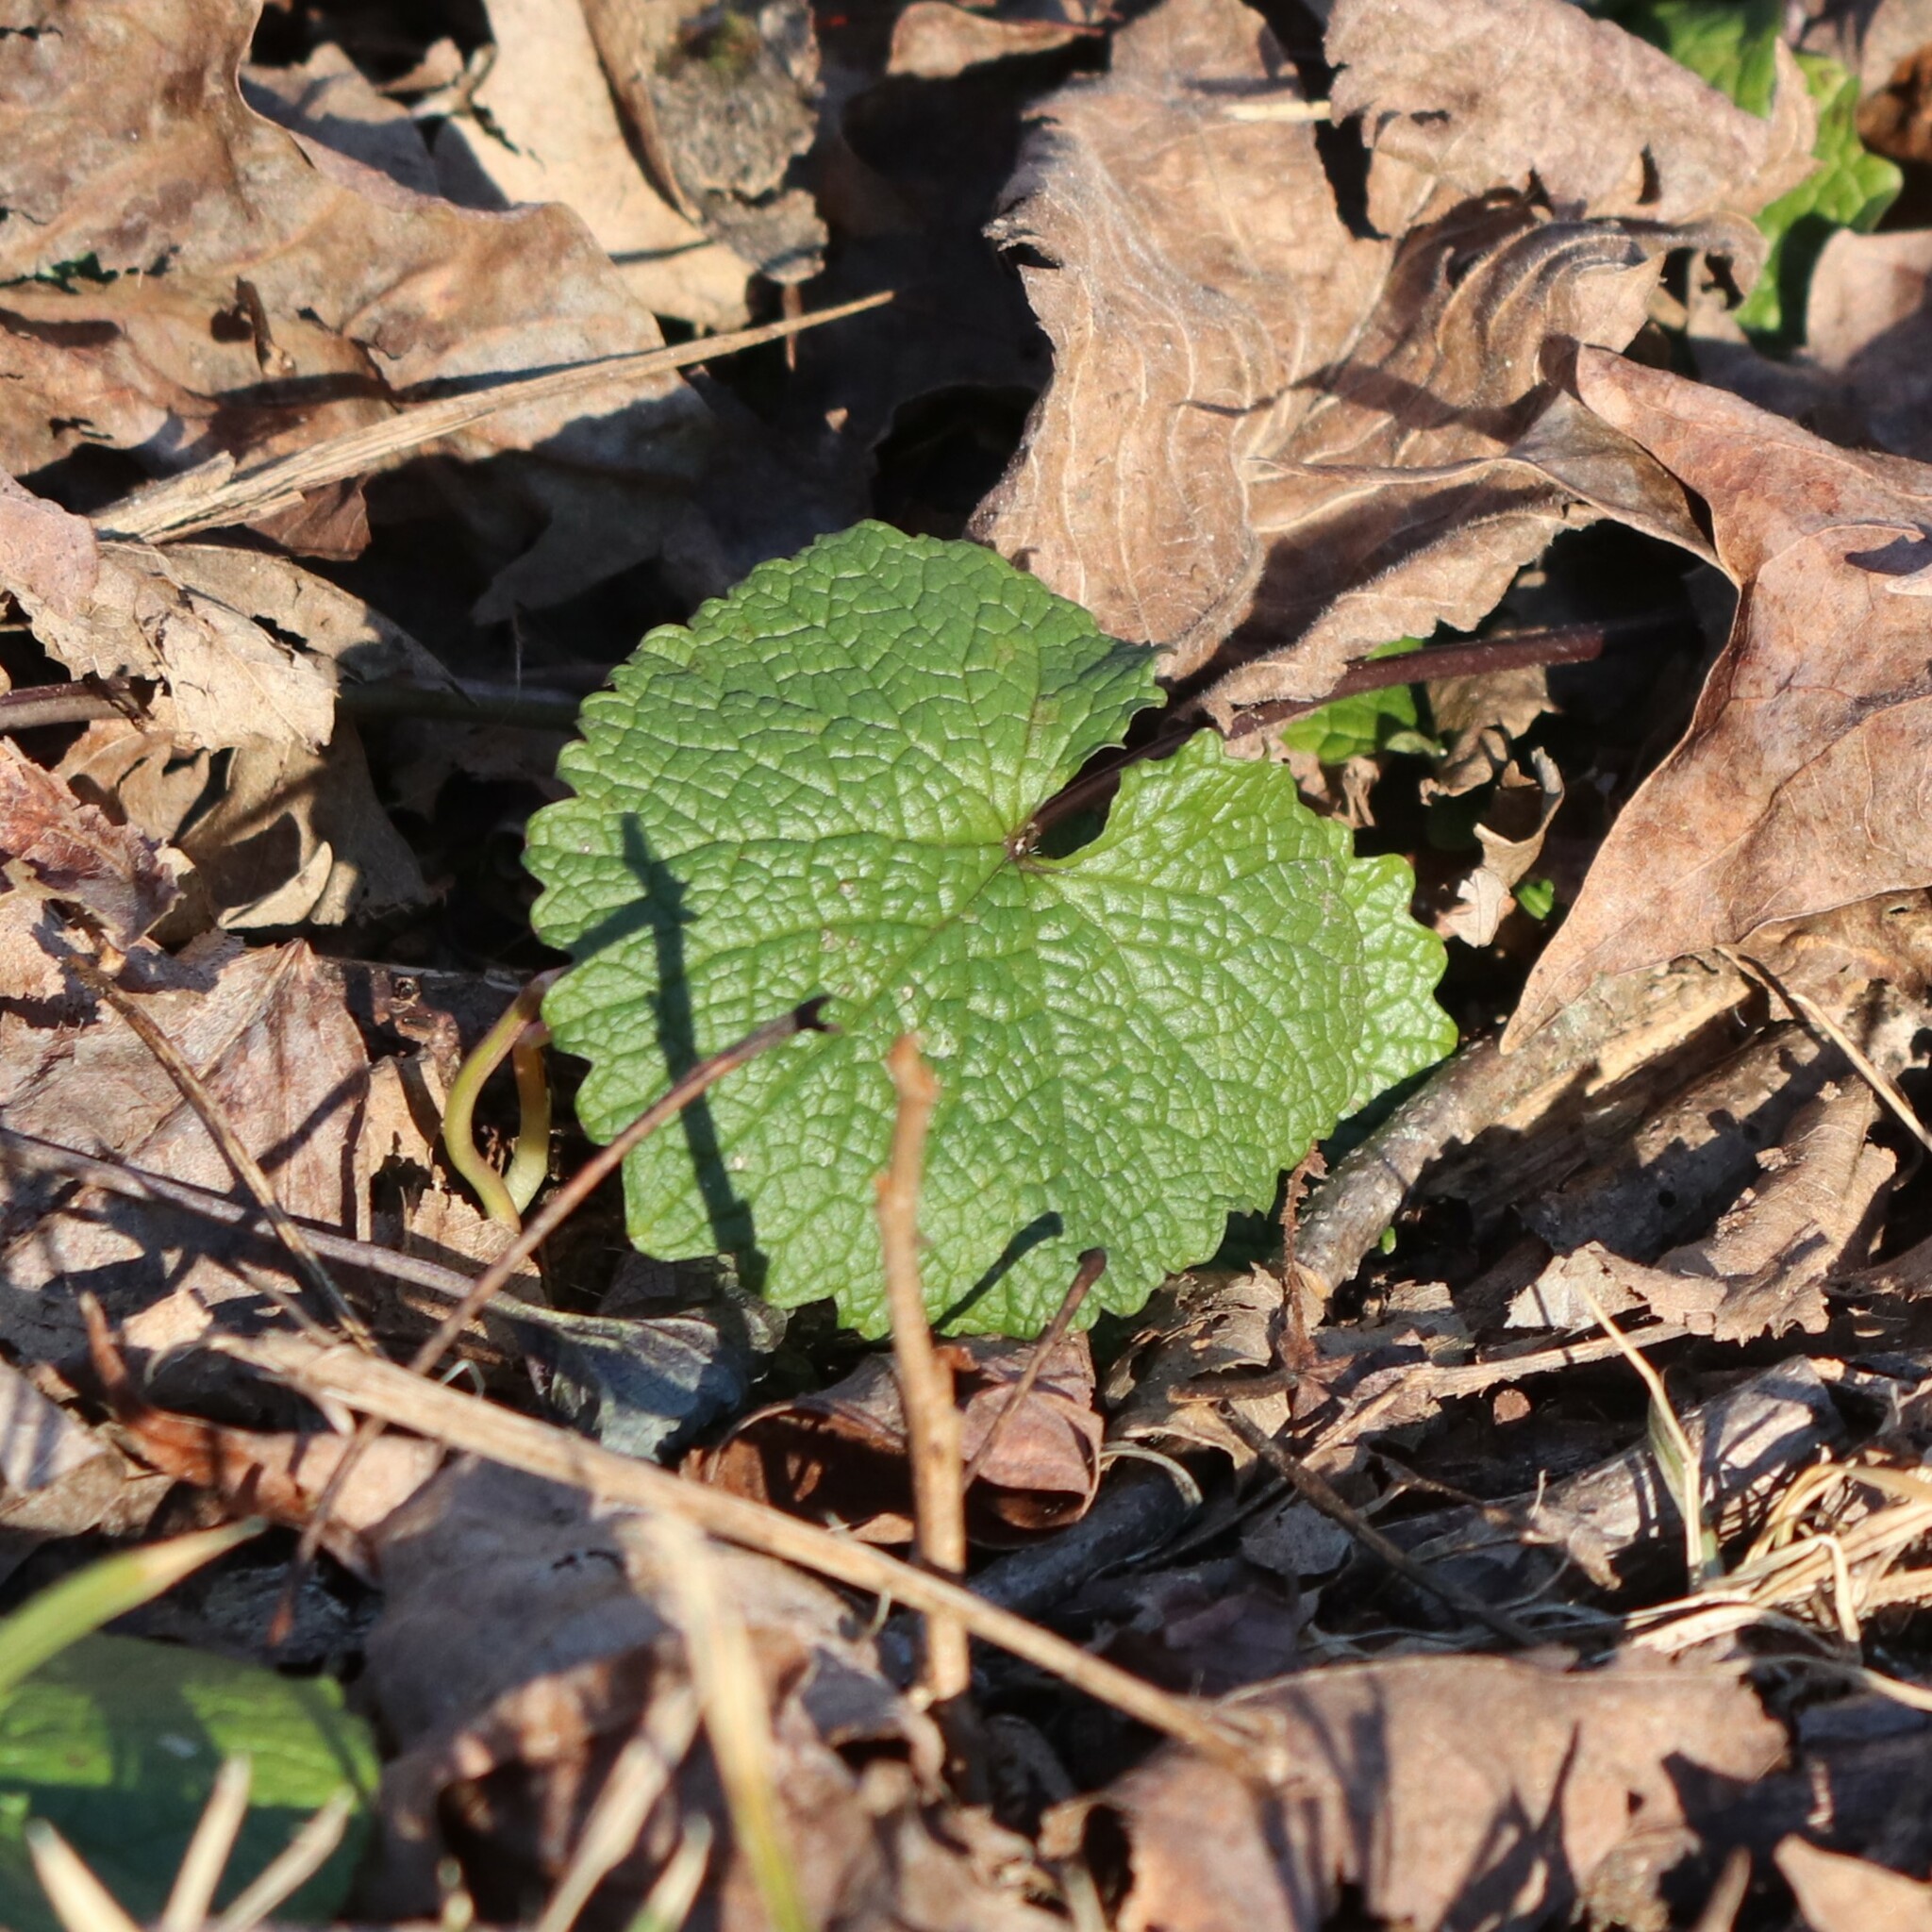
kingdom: Plantae
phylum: Tracheophyta
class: Magnoliopsida
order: Brassicales
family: Brassicaceae
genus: Alliaria
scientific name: Alliaria petiolata
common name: Garlic mustard
